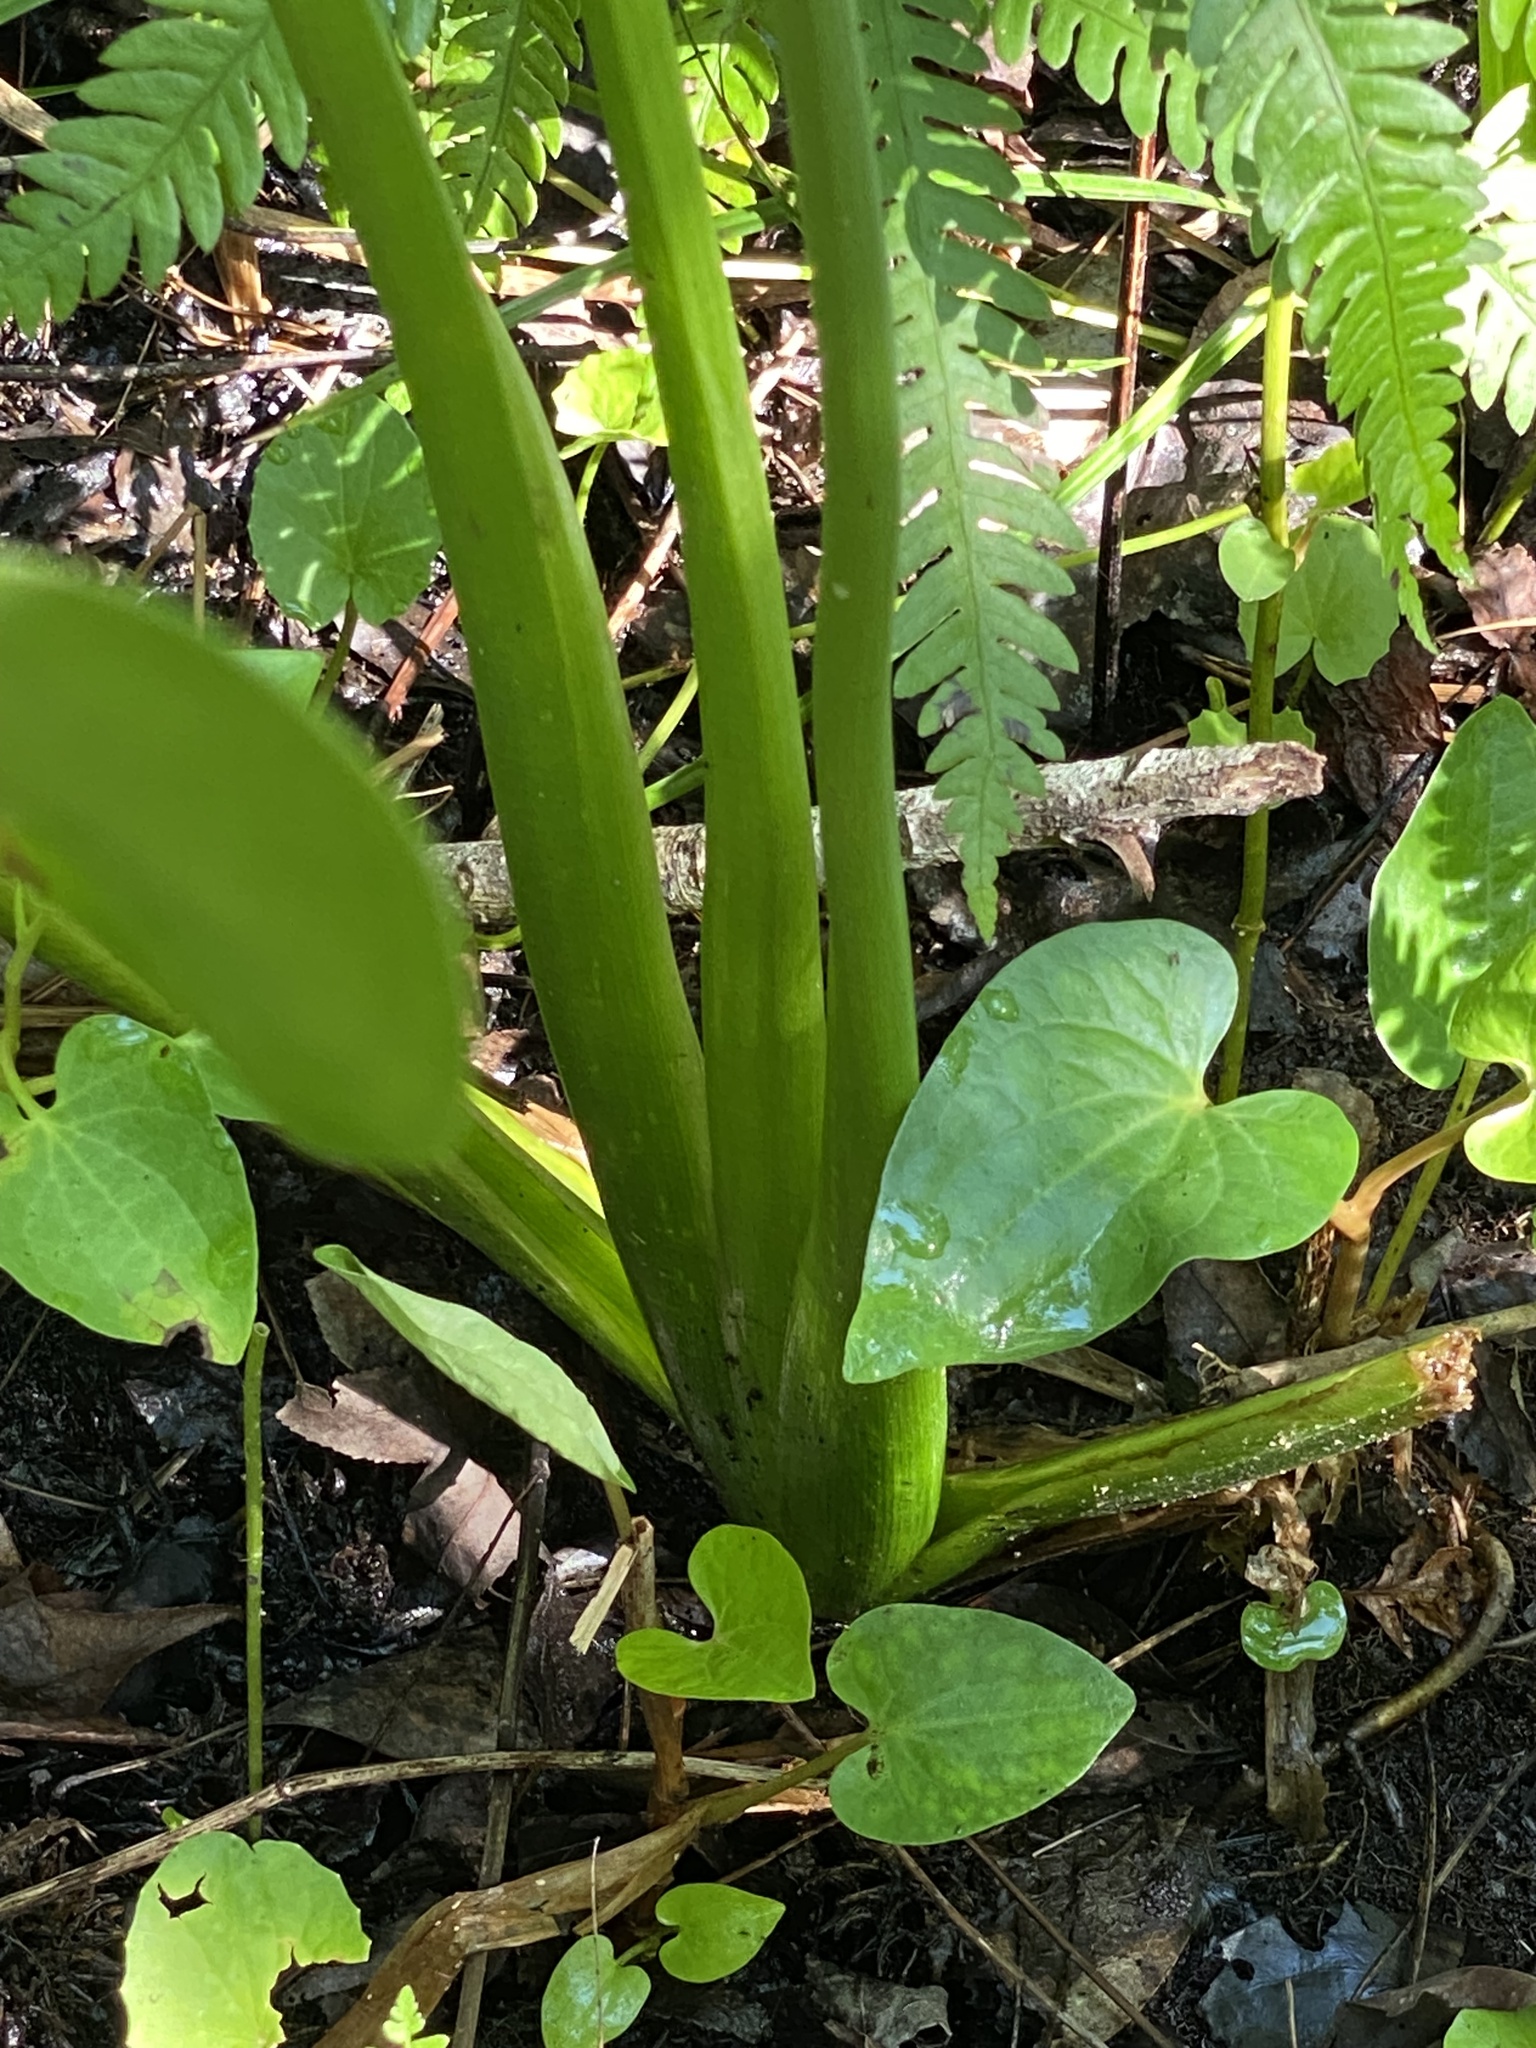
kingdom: Plantae
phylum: Tracheophyta
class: Liliopsida
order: Alismatales
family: Alismataceae
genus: Sagittaria
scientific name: Sagittaria lancifolia
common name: Lance-leaf arrowhead
